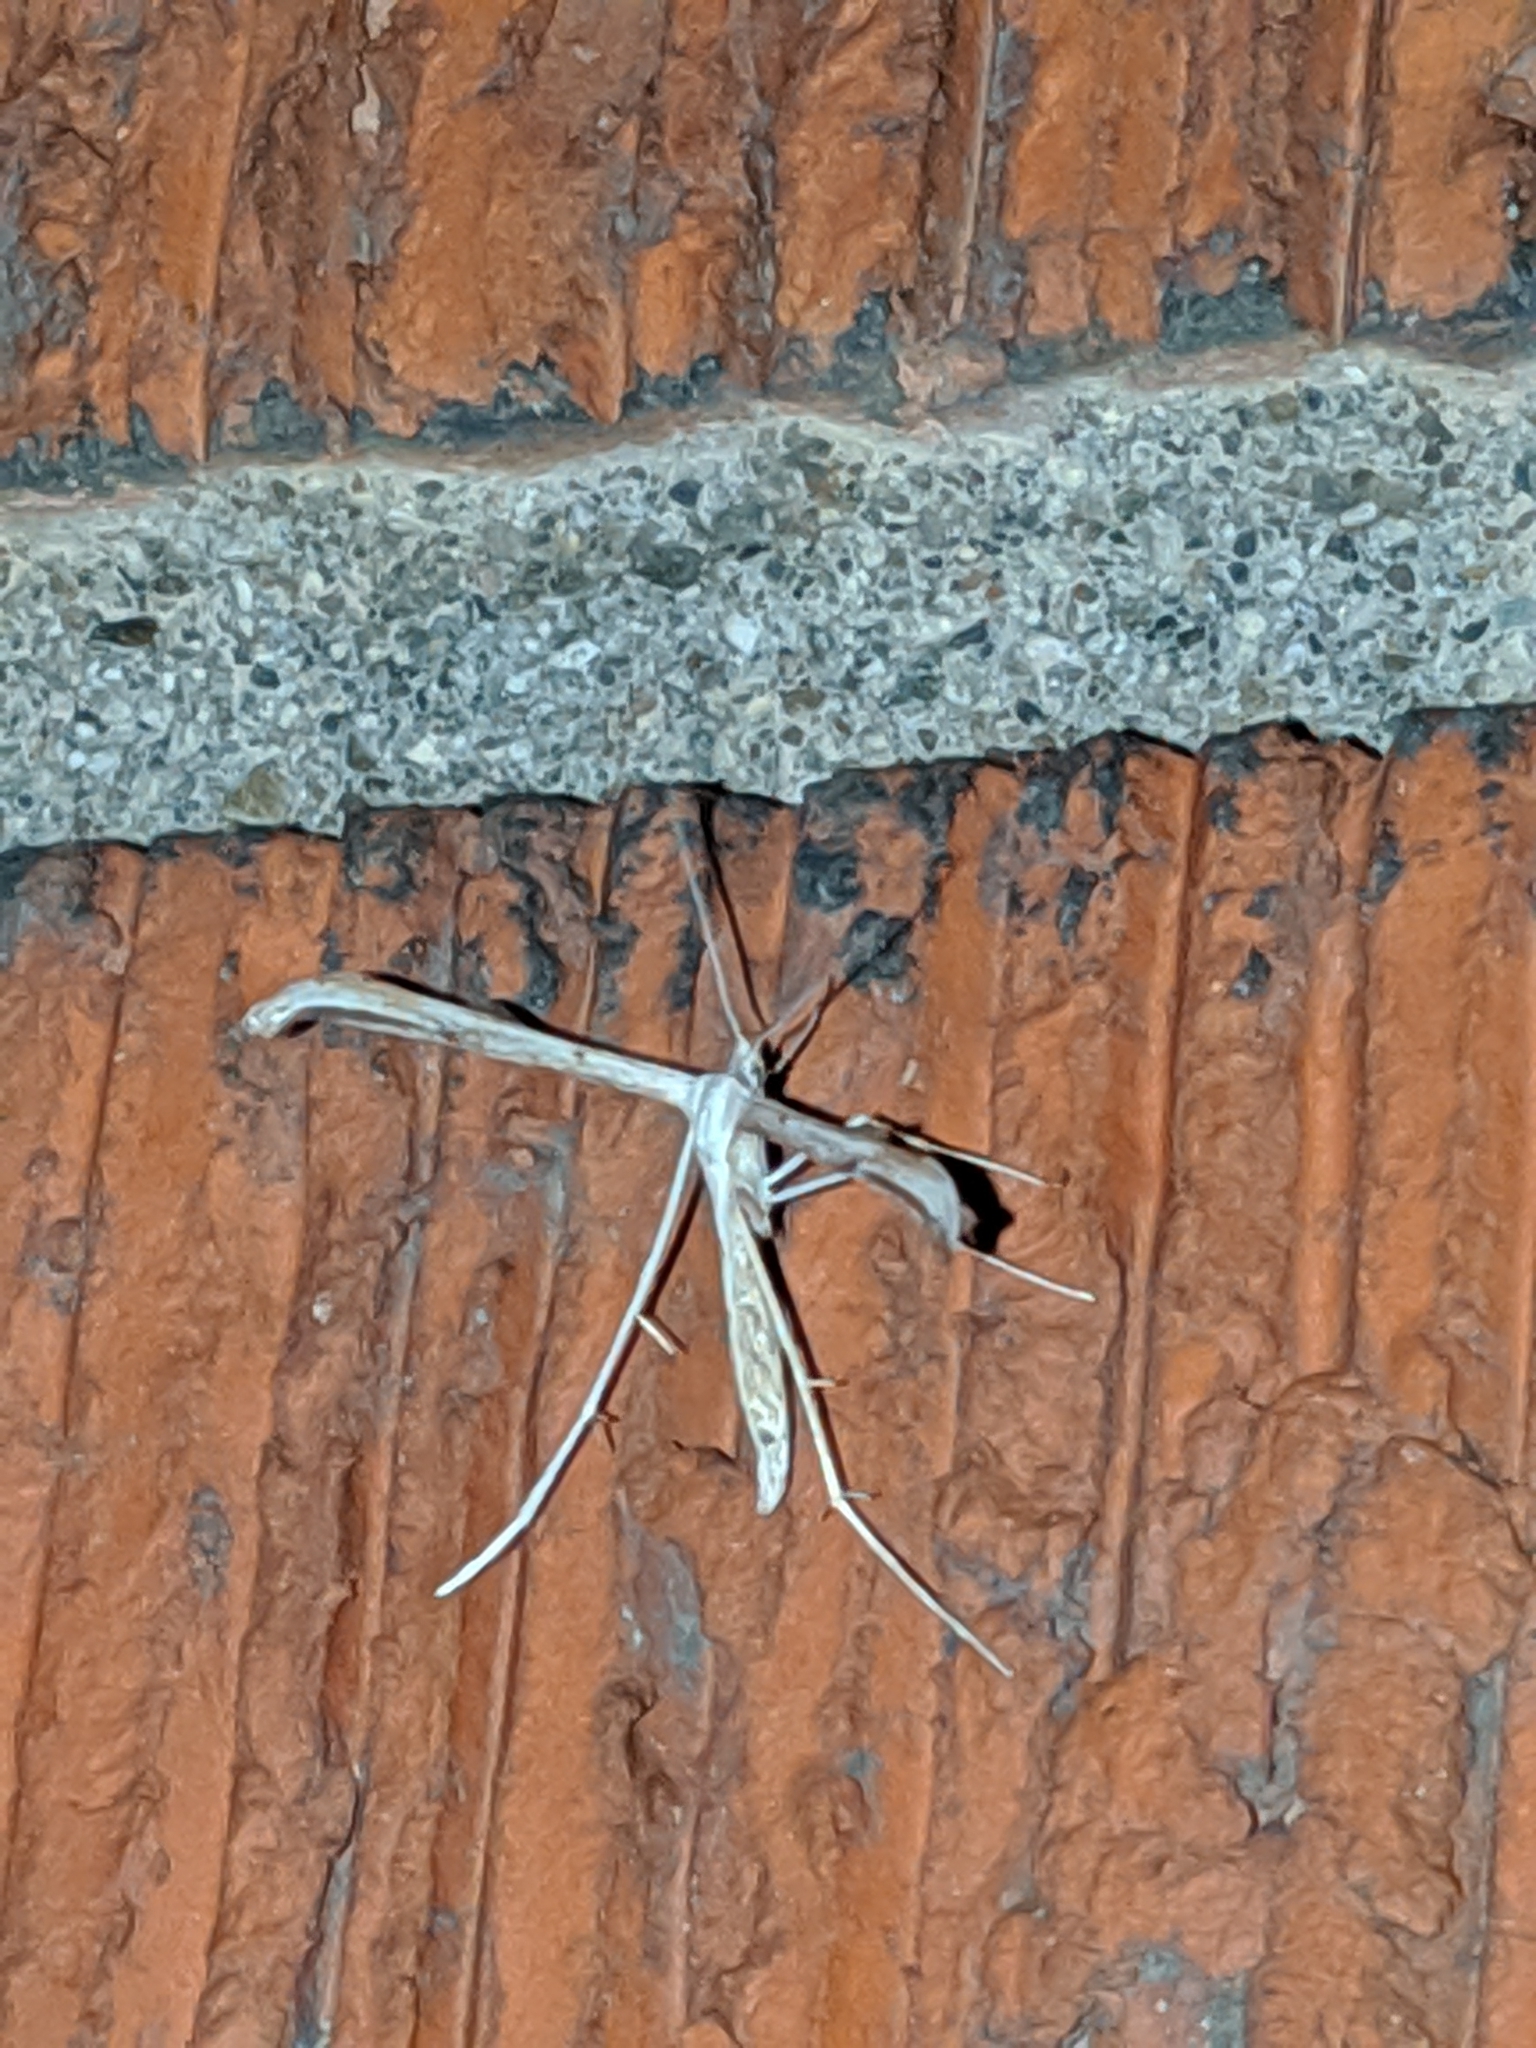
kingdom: Animalia
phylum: Arthropoda
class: Insecta
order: Lepidoptera
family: Pterophoridae
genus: Emmelina
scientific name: Emmelina monodactyla
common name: Common plume
